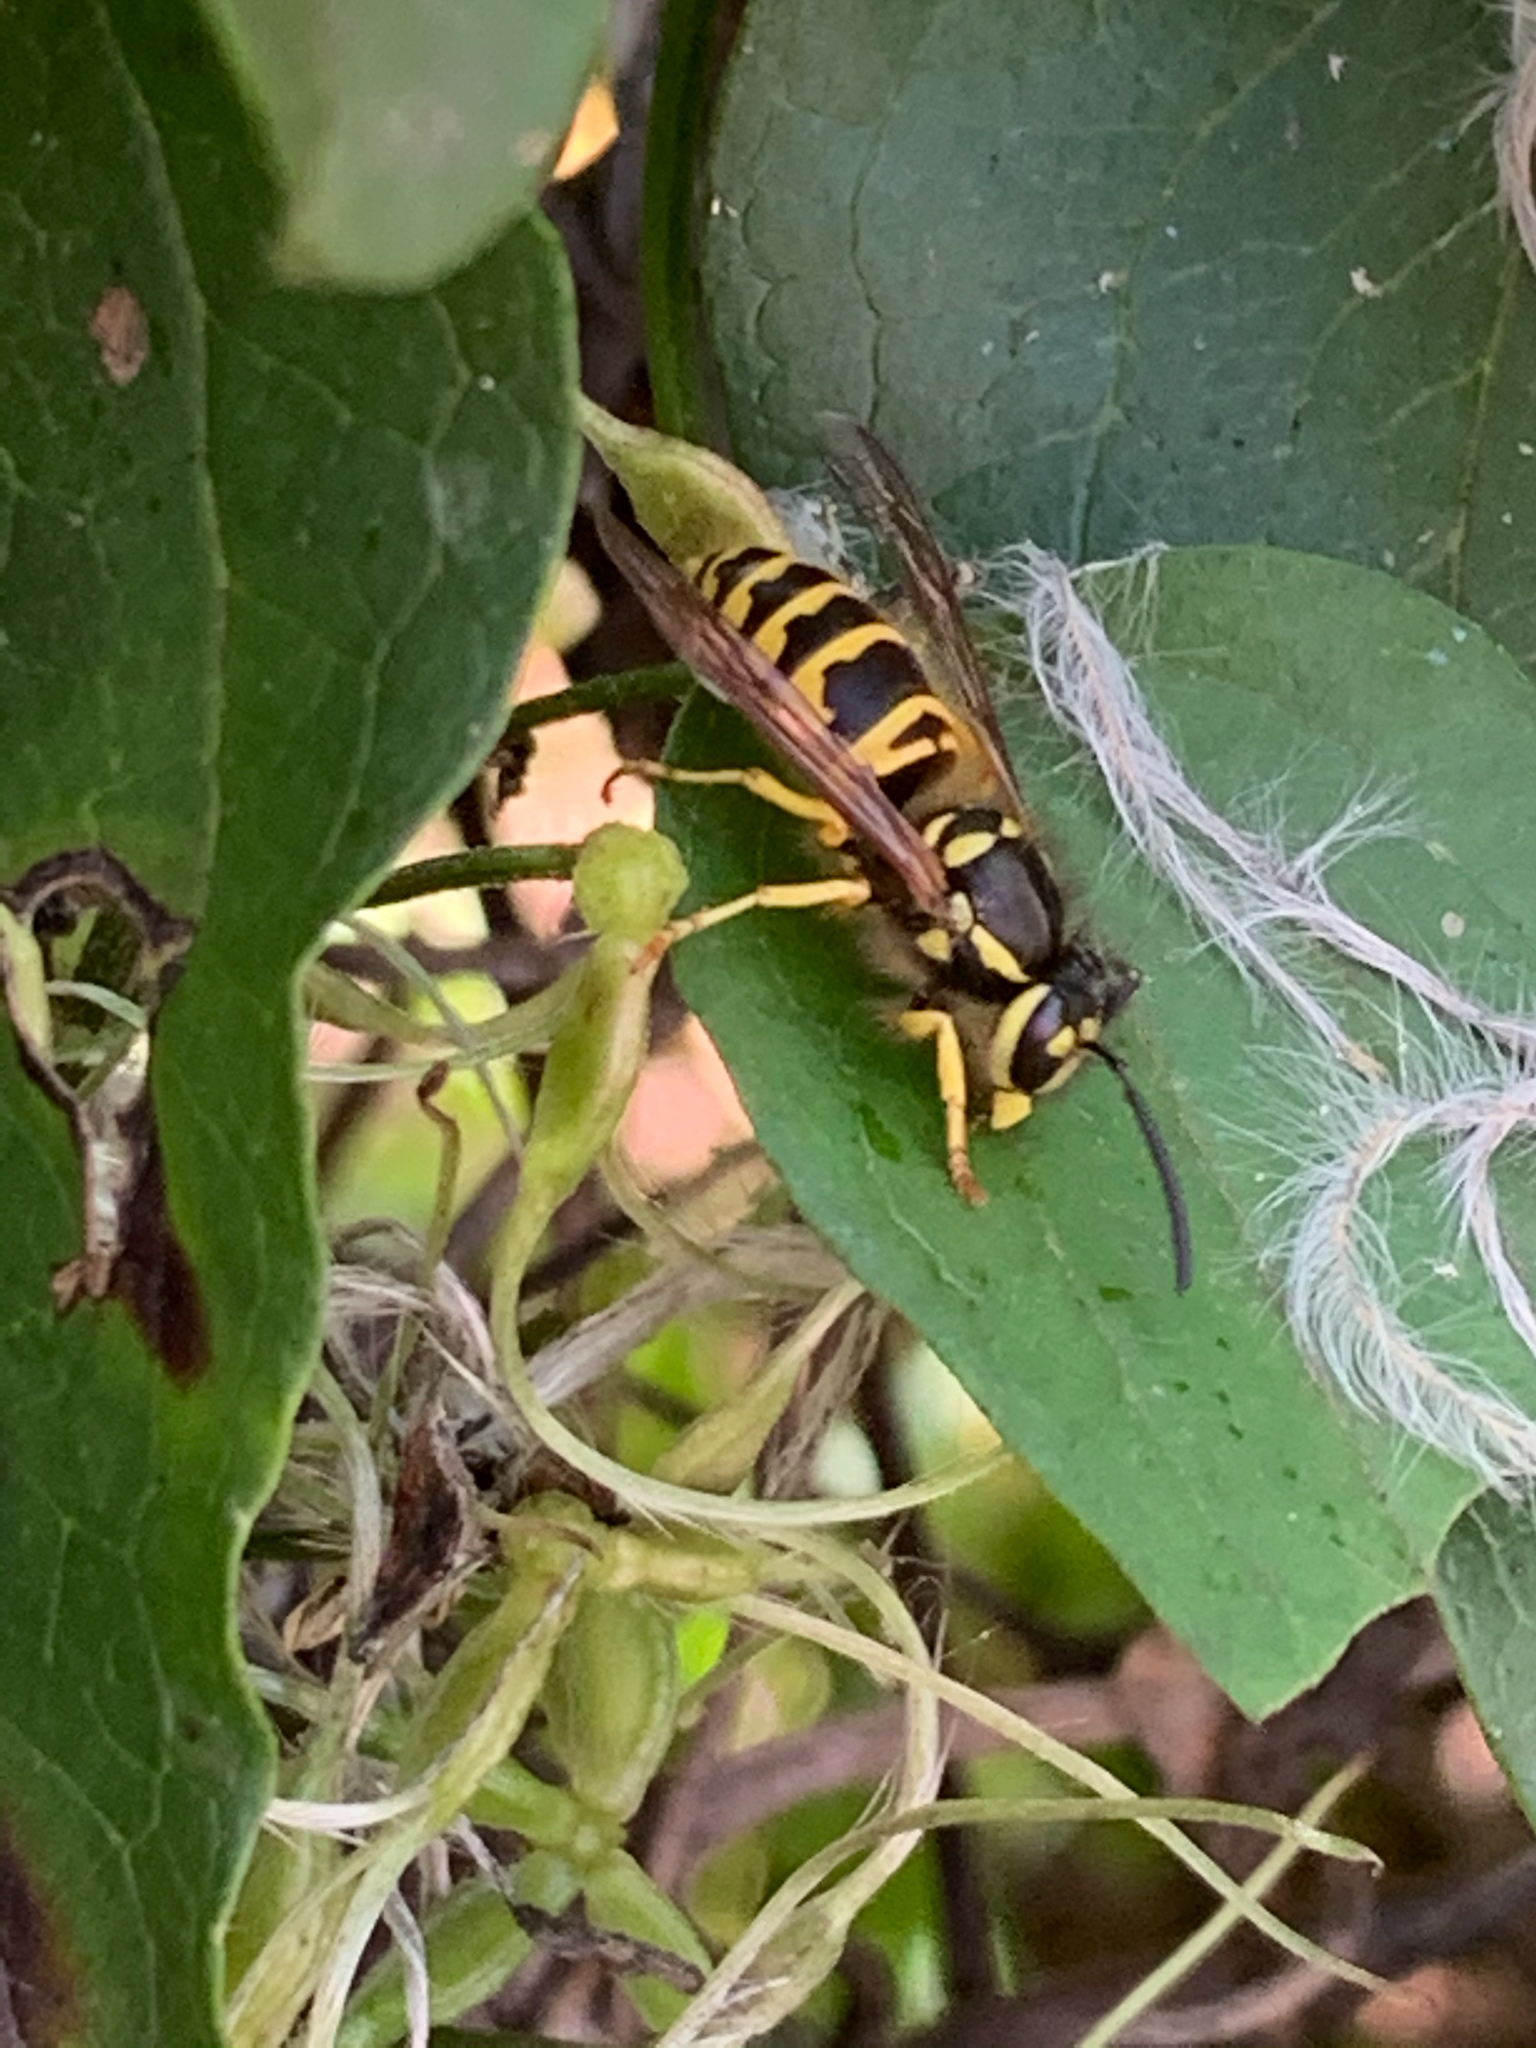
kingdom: Animalia
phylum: Arthropoda
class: Insecta
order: Hymenoptera
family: Vespidae
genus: Vespula
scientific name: Vespula maculifrons
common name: Eastern yellowjacket
